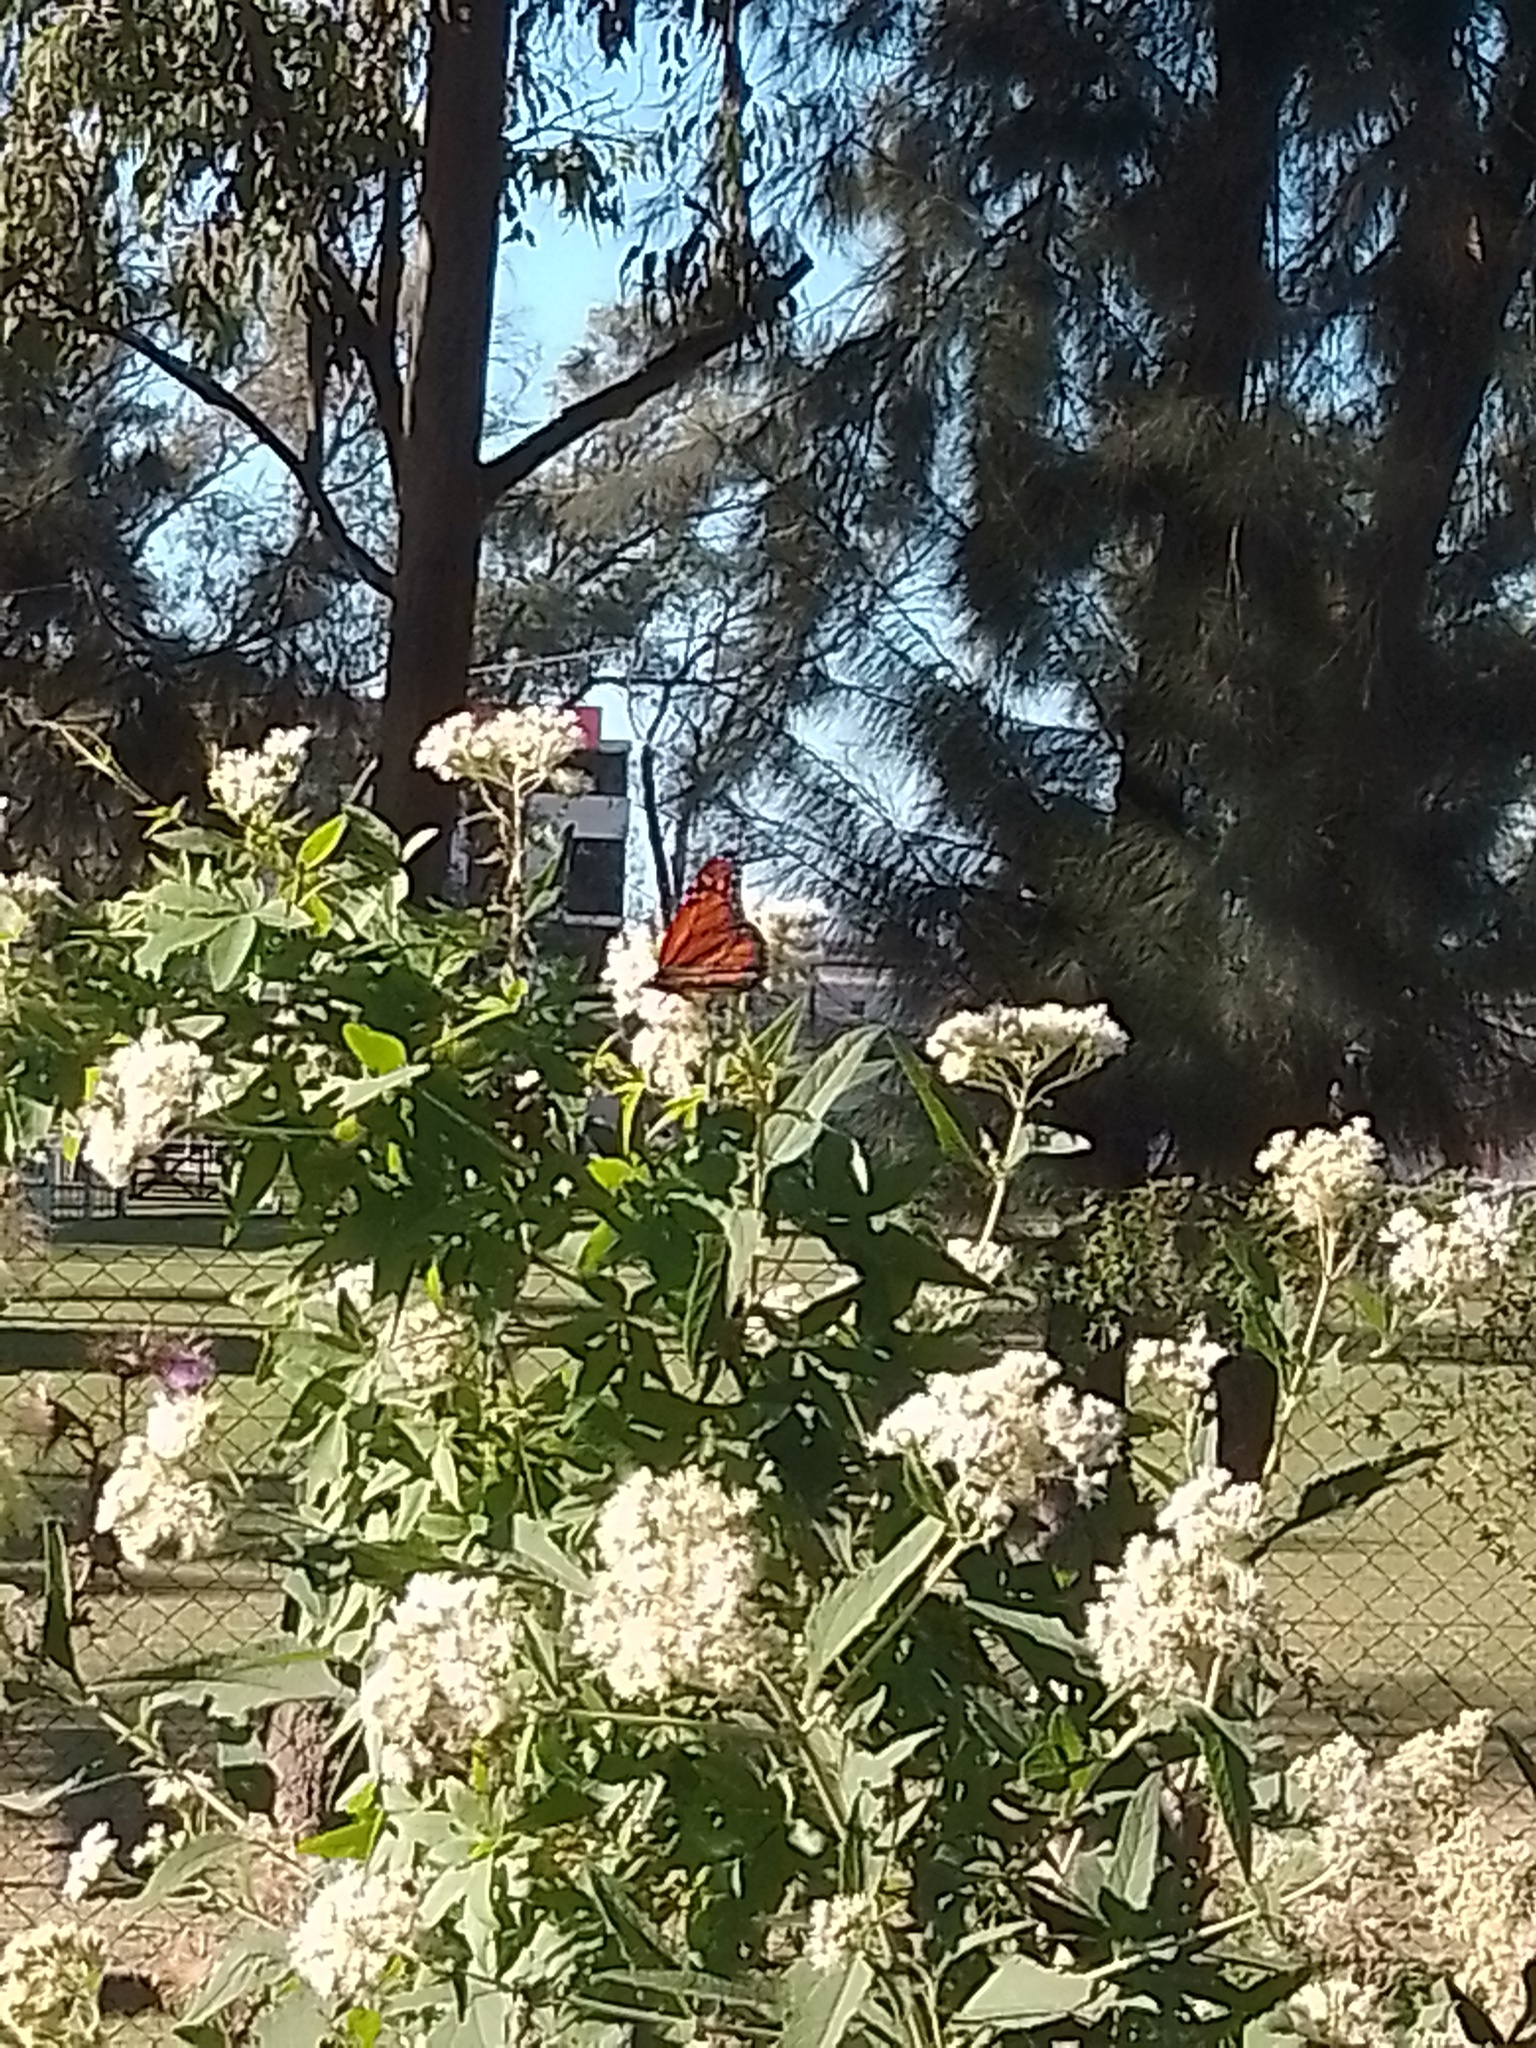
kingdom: Animalia
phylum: Arthropoda
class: Insecta
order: Lepidoptera
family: Nymphalidae
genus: Danaus
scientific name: Danaus erippus
